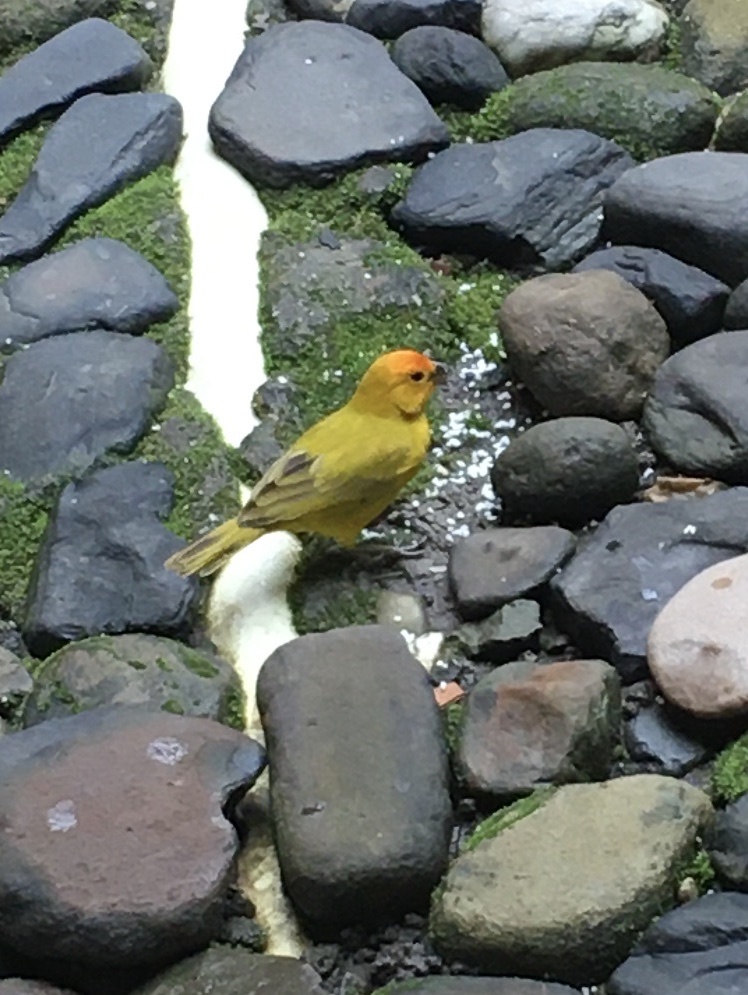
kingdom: Animalia
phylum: Chordata
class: Aves
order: Passeriformes
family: Thraupidae
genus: Sicalis
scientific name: Sicalis flaveola
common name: Saffron finch
